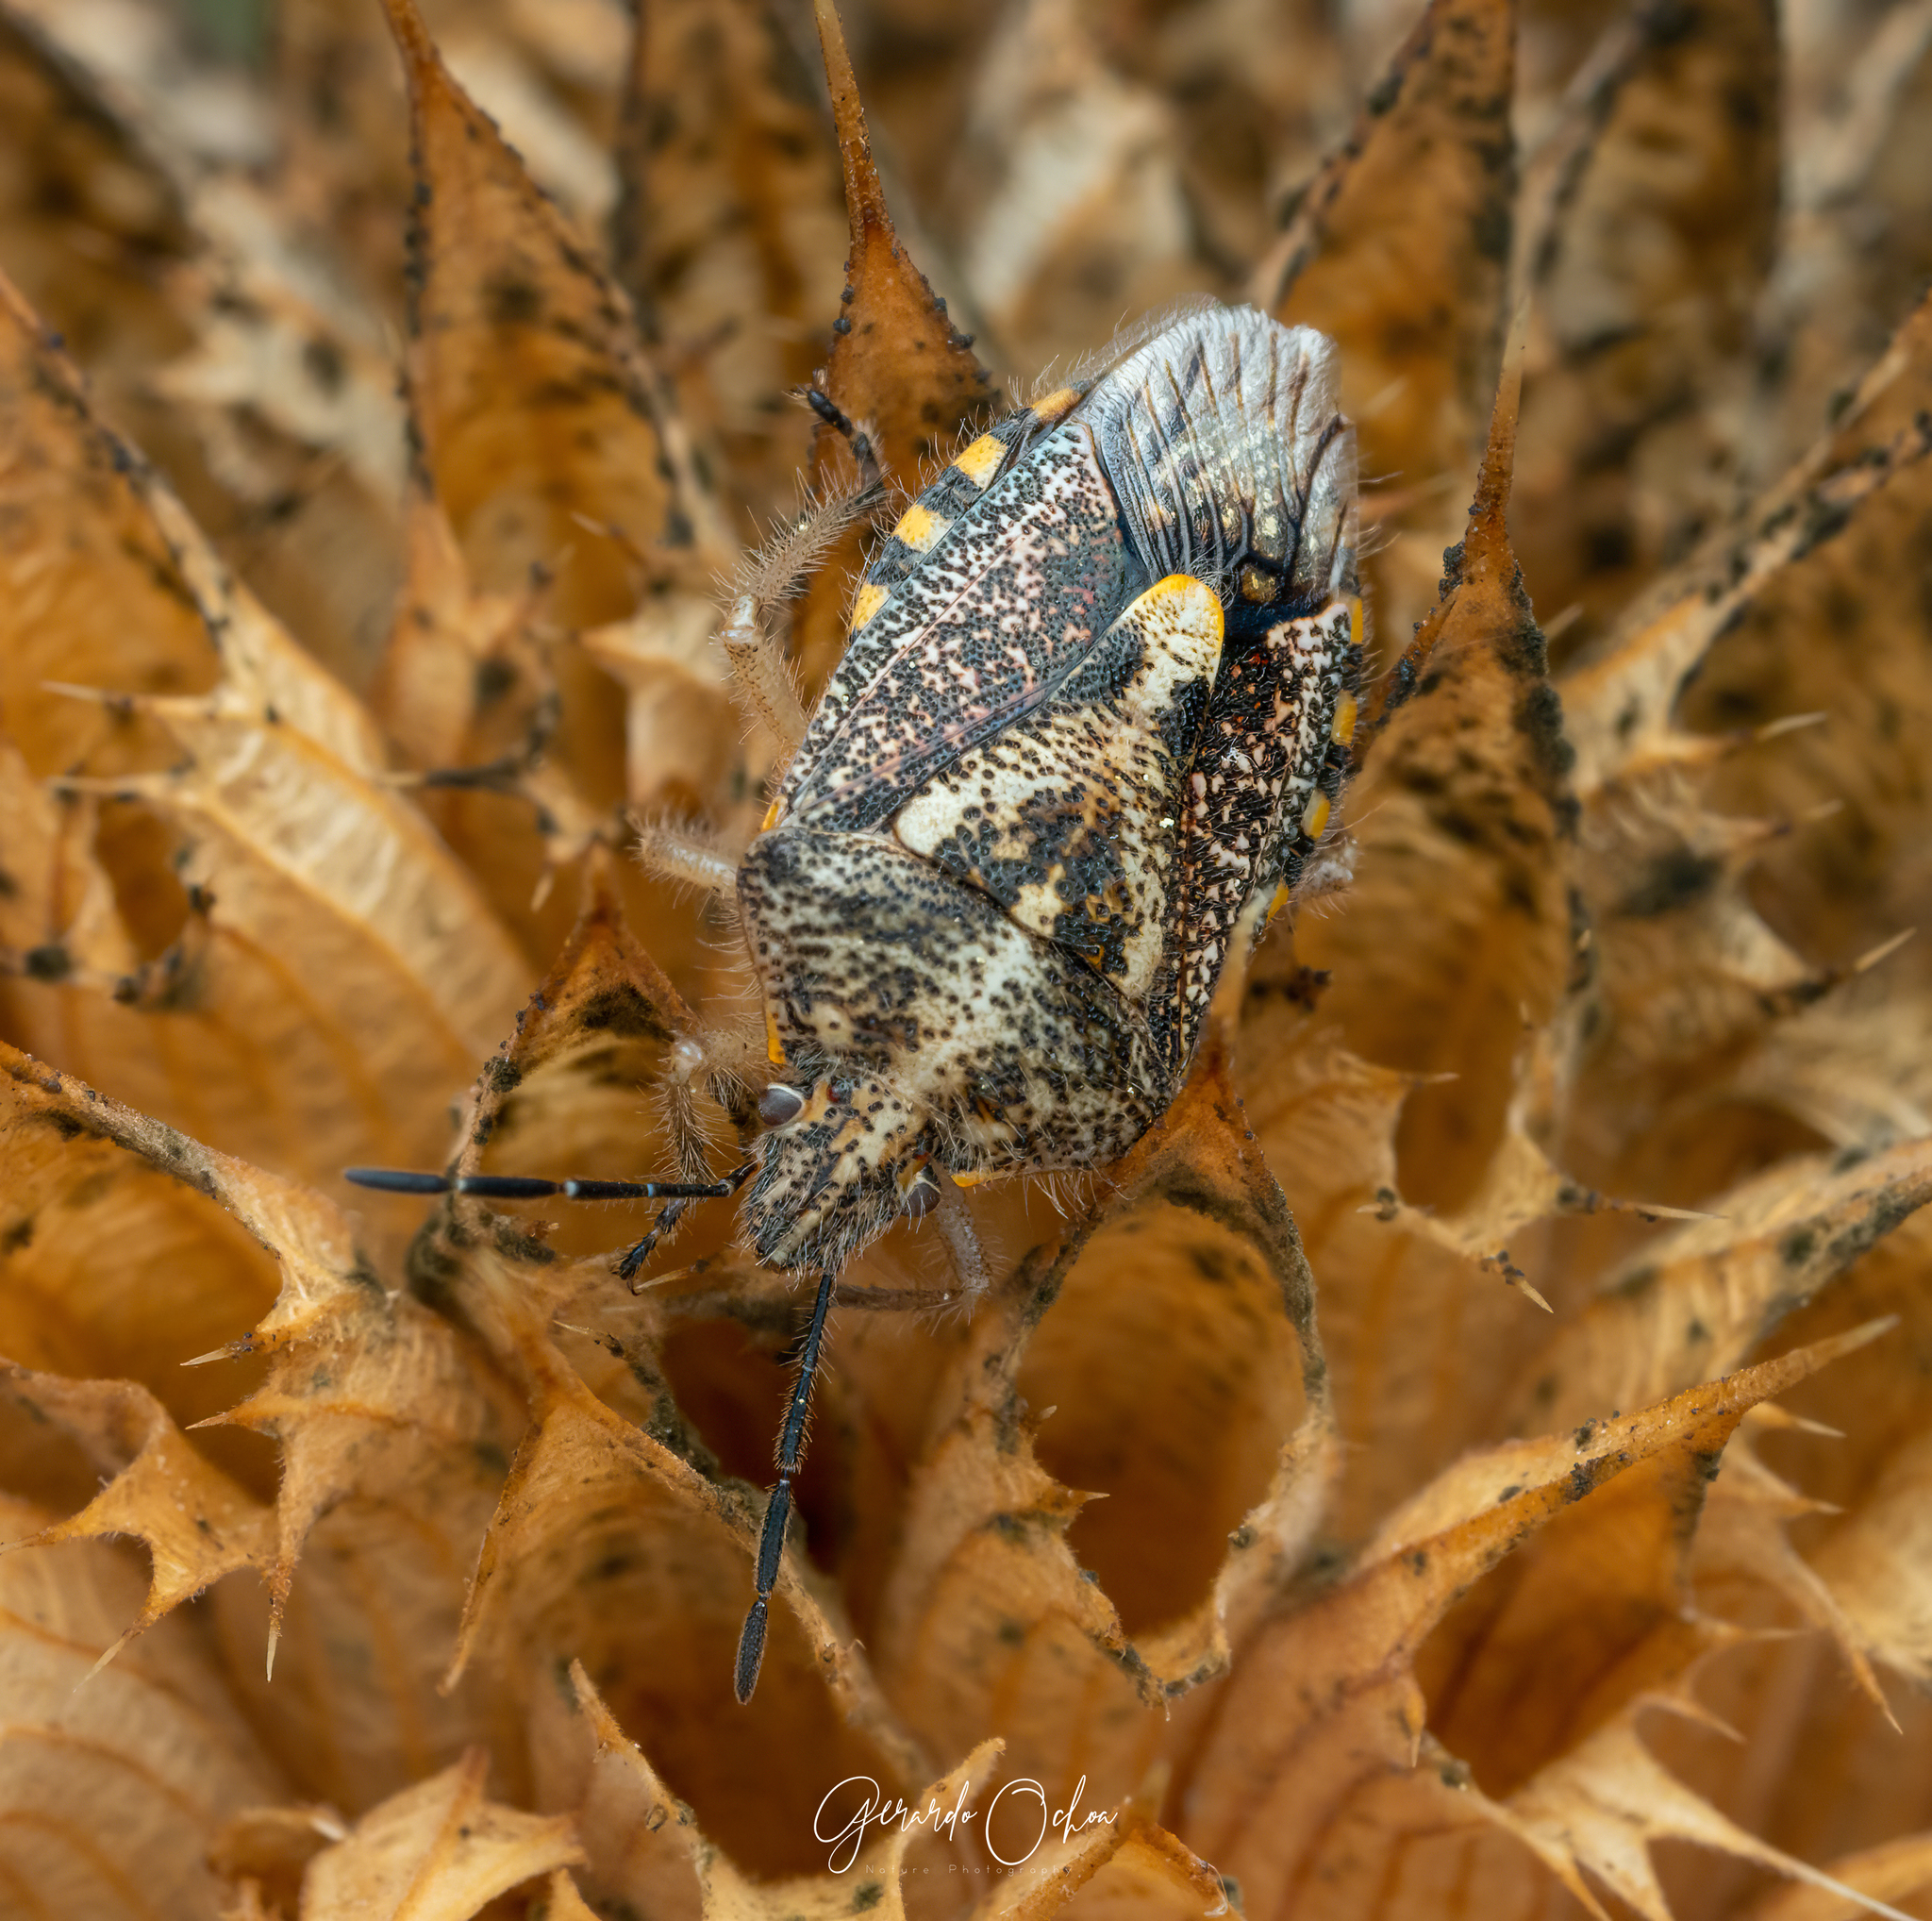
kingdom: Animalia
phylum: Arthropoda
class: Insecta
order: Hemiptera
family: Pentatomidae
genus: Agonoscelis
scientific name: Agonoscelis puberula
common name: African cluster bug
